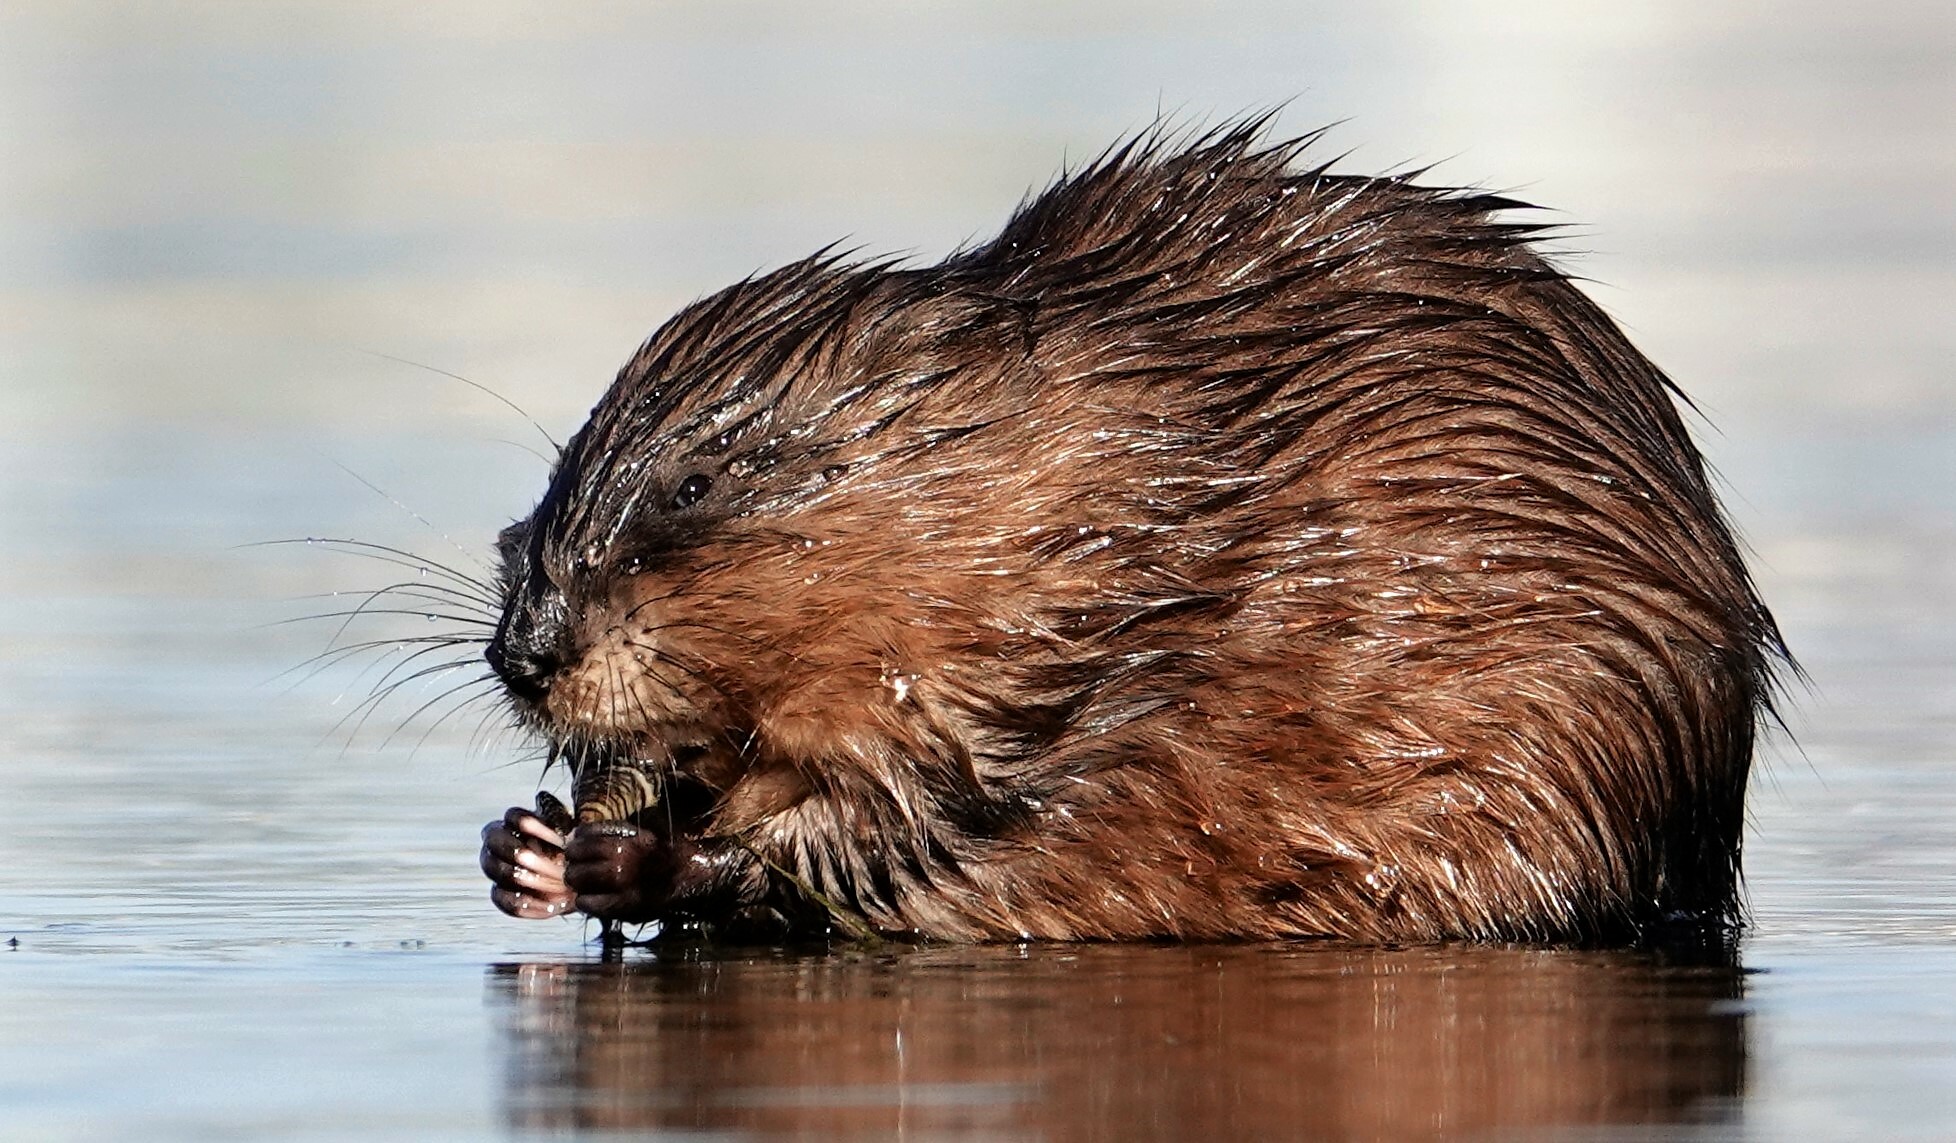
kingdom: Animalia
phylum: Chordata
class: Mammalia
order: Rodentia
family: Cricetidae
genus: Ondatra
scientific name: Ondatra zibethicus
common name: Muskrat
